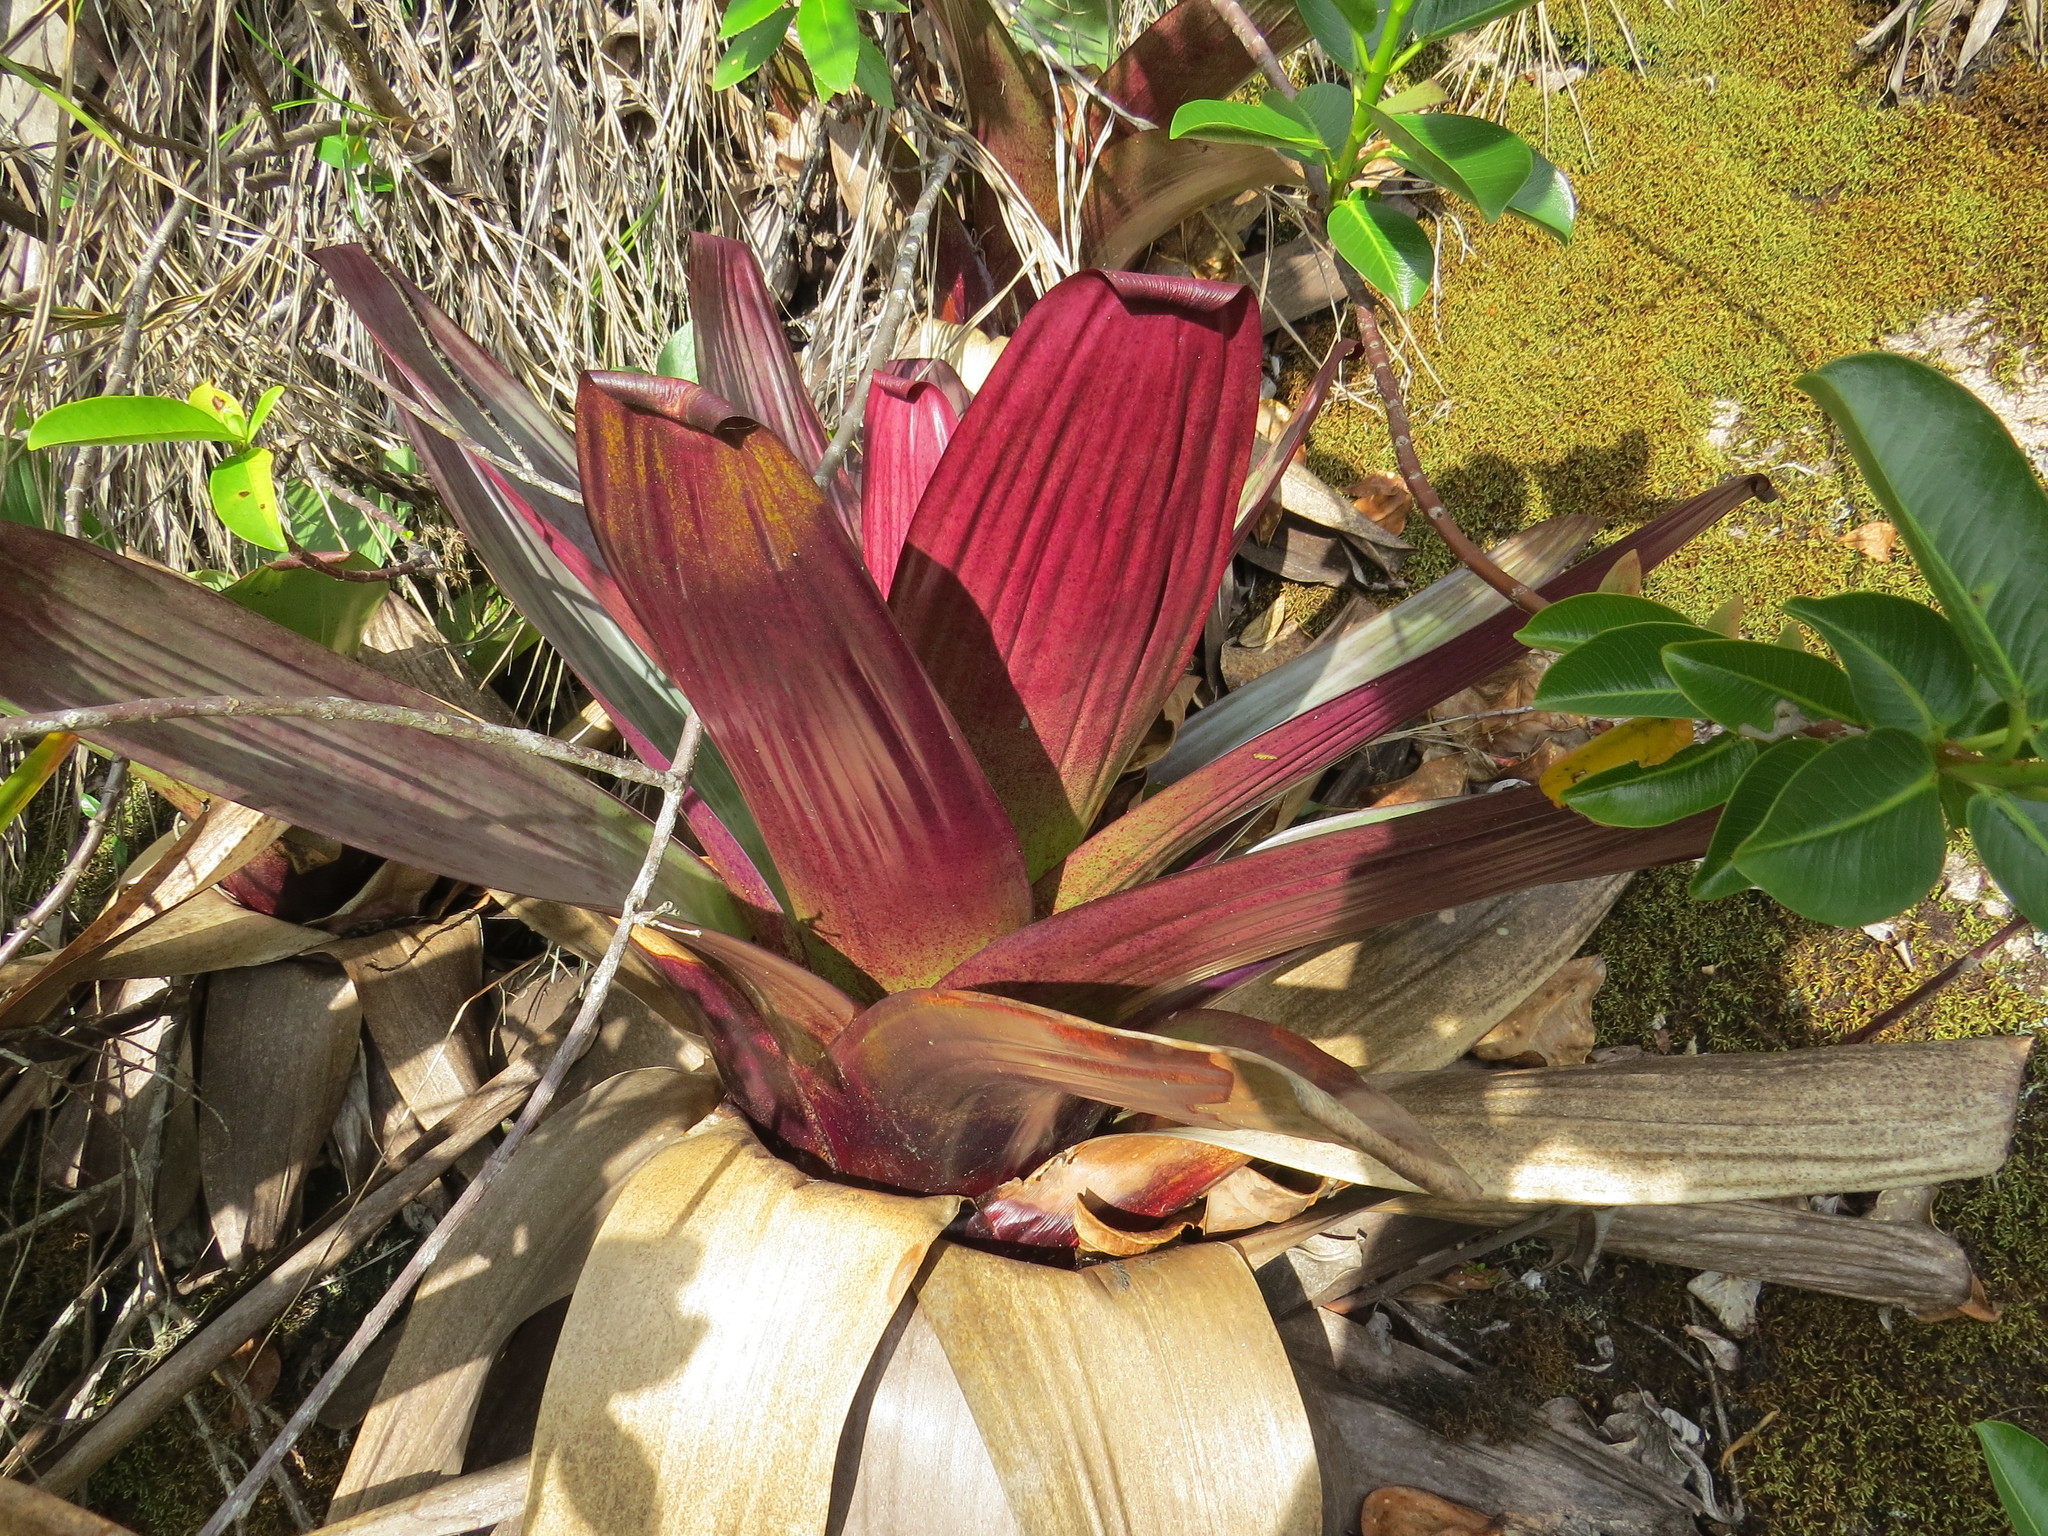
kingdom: Plantae
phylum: Tracheophyta
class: Liliopsida
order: Poales
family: Bromeliaceae
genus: Alcantarea
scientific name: Alcantarea imperialis
